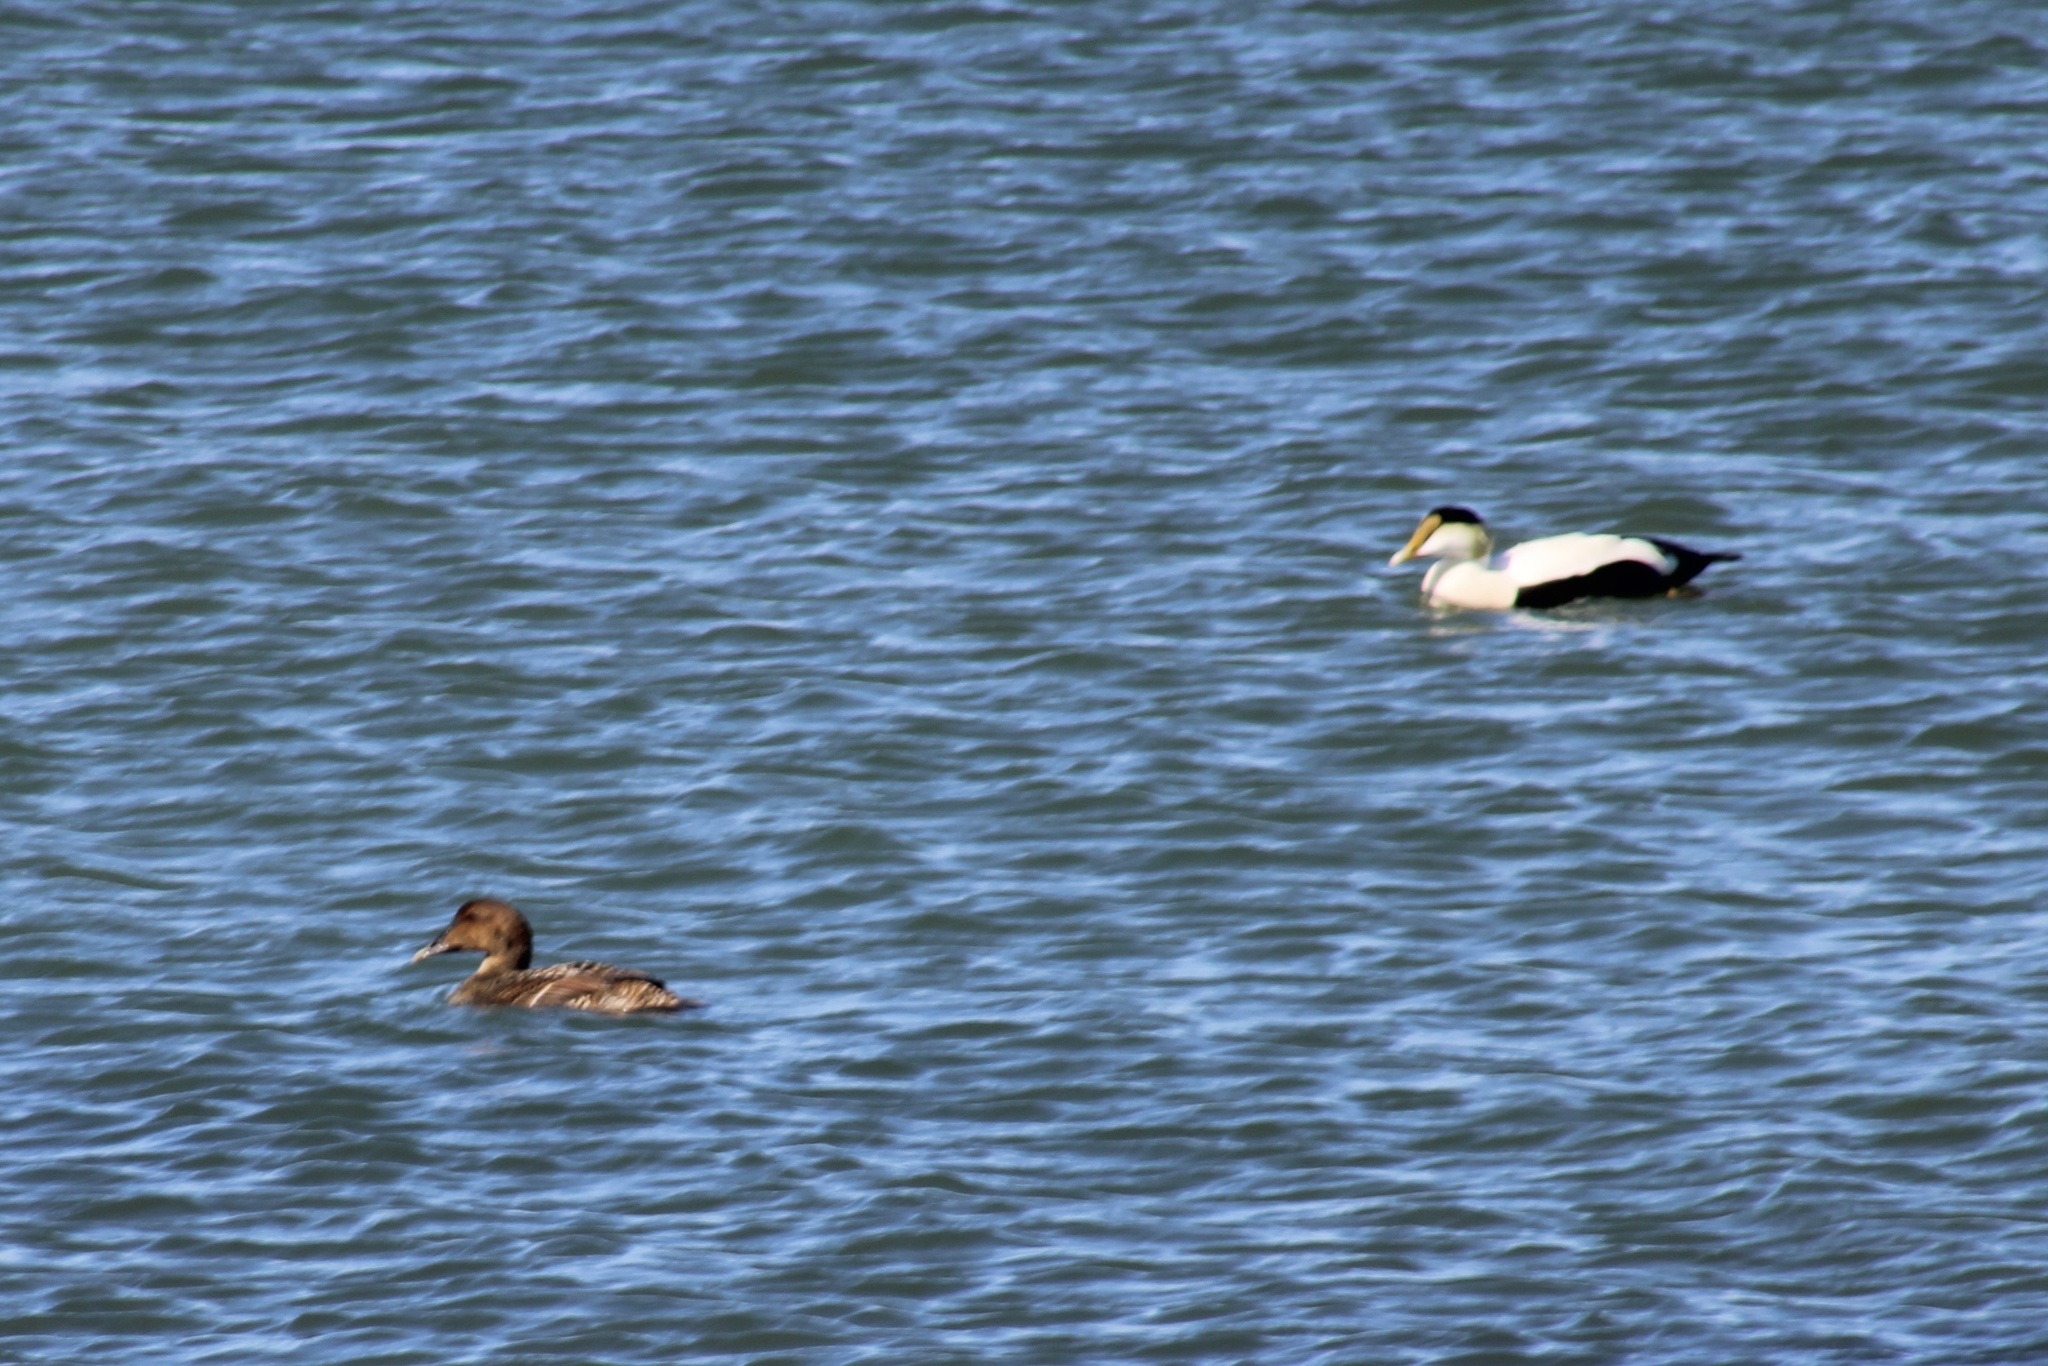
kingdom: Animalia
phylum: Chordata
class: Aves
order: Anseriformes
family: Anatidae
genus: Somateria
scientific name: Somateria mollissima
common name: Common eider
